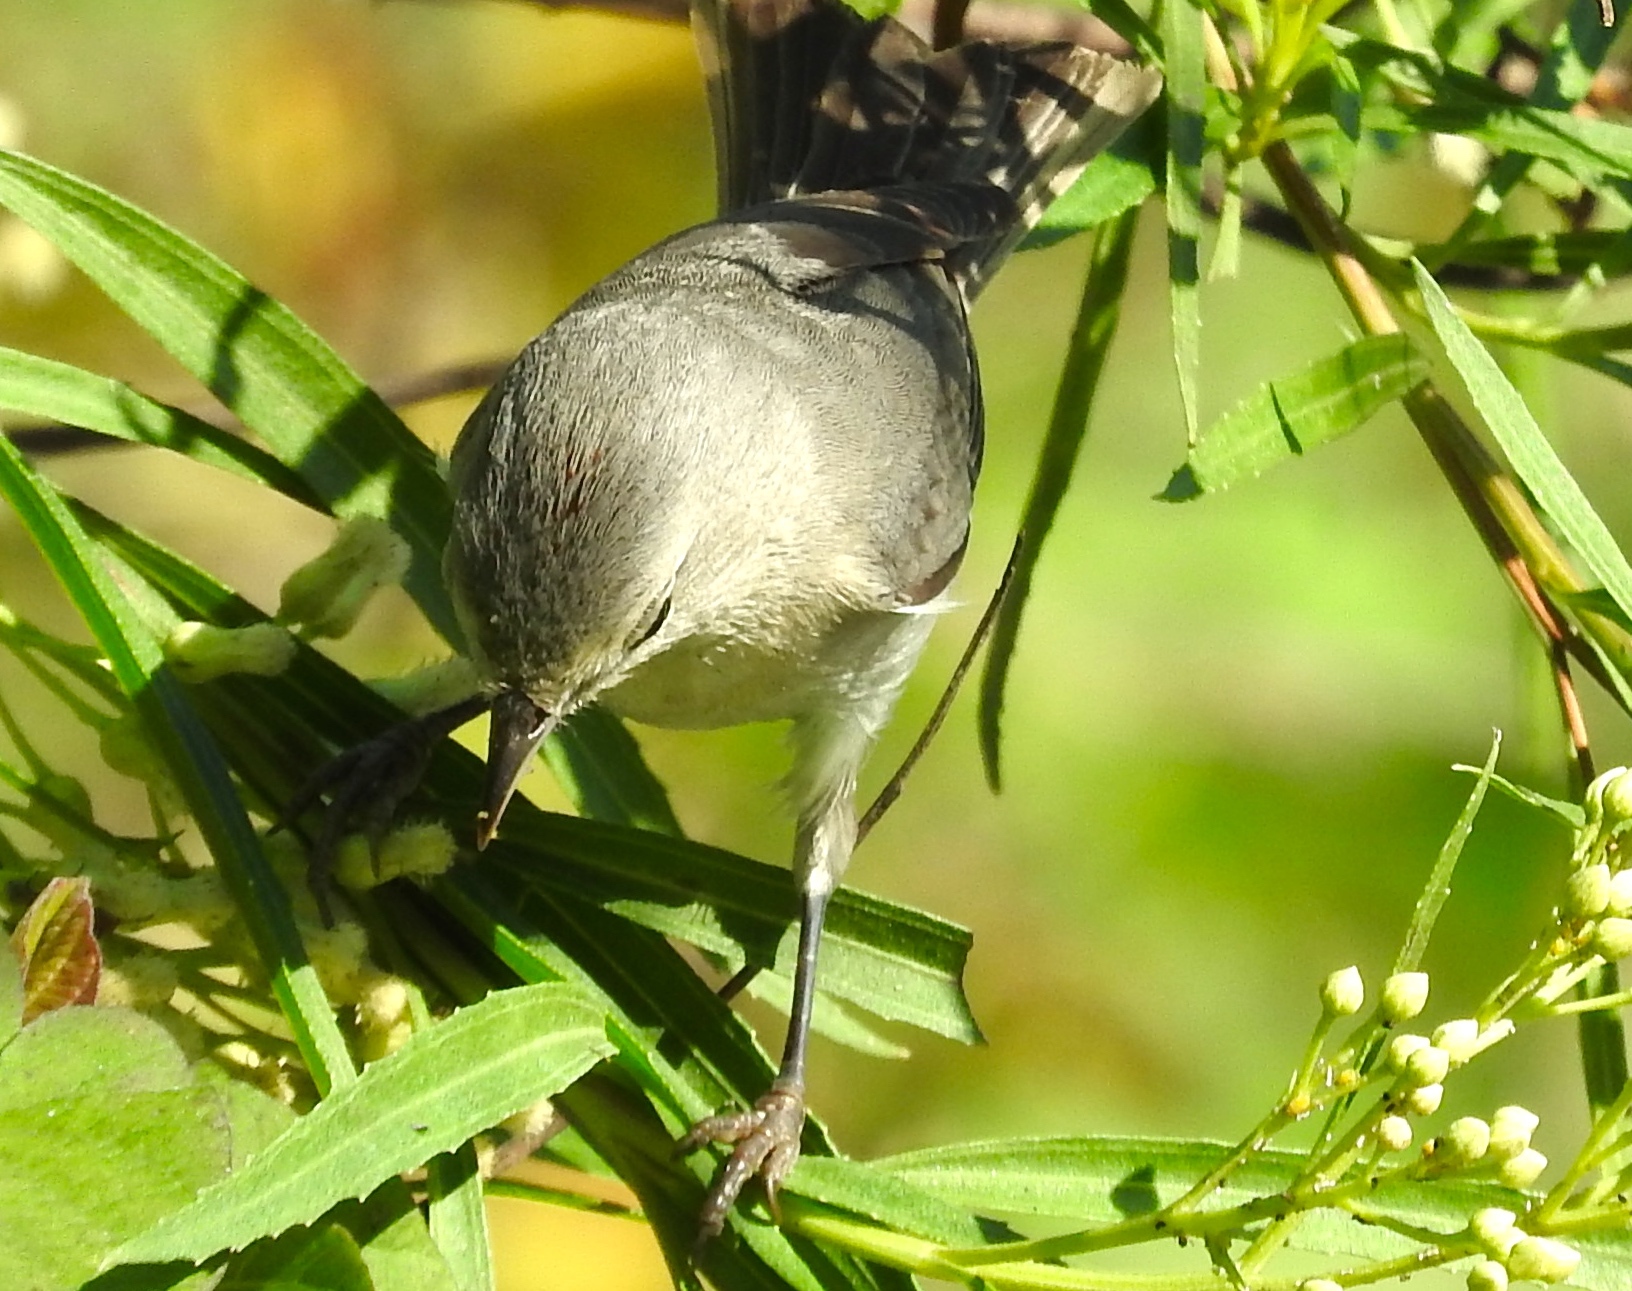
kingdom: Animalia
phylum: Chordata
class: Aves
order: Passeriformes
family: Polioptilidae
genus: Polioptila
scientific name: Polioptila caerulea
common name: Blue-gray gnatcatcher
